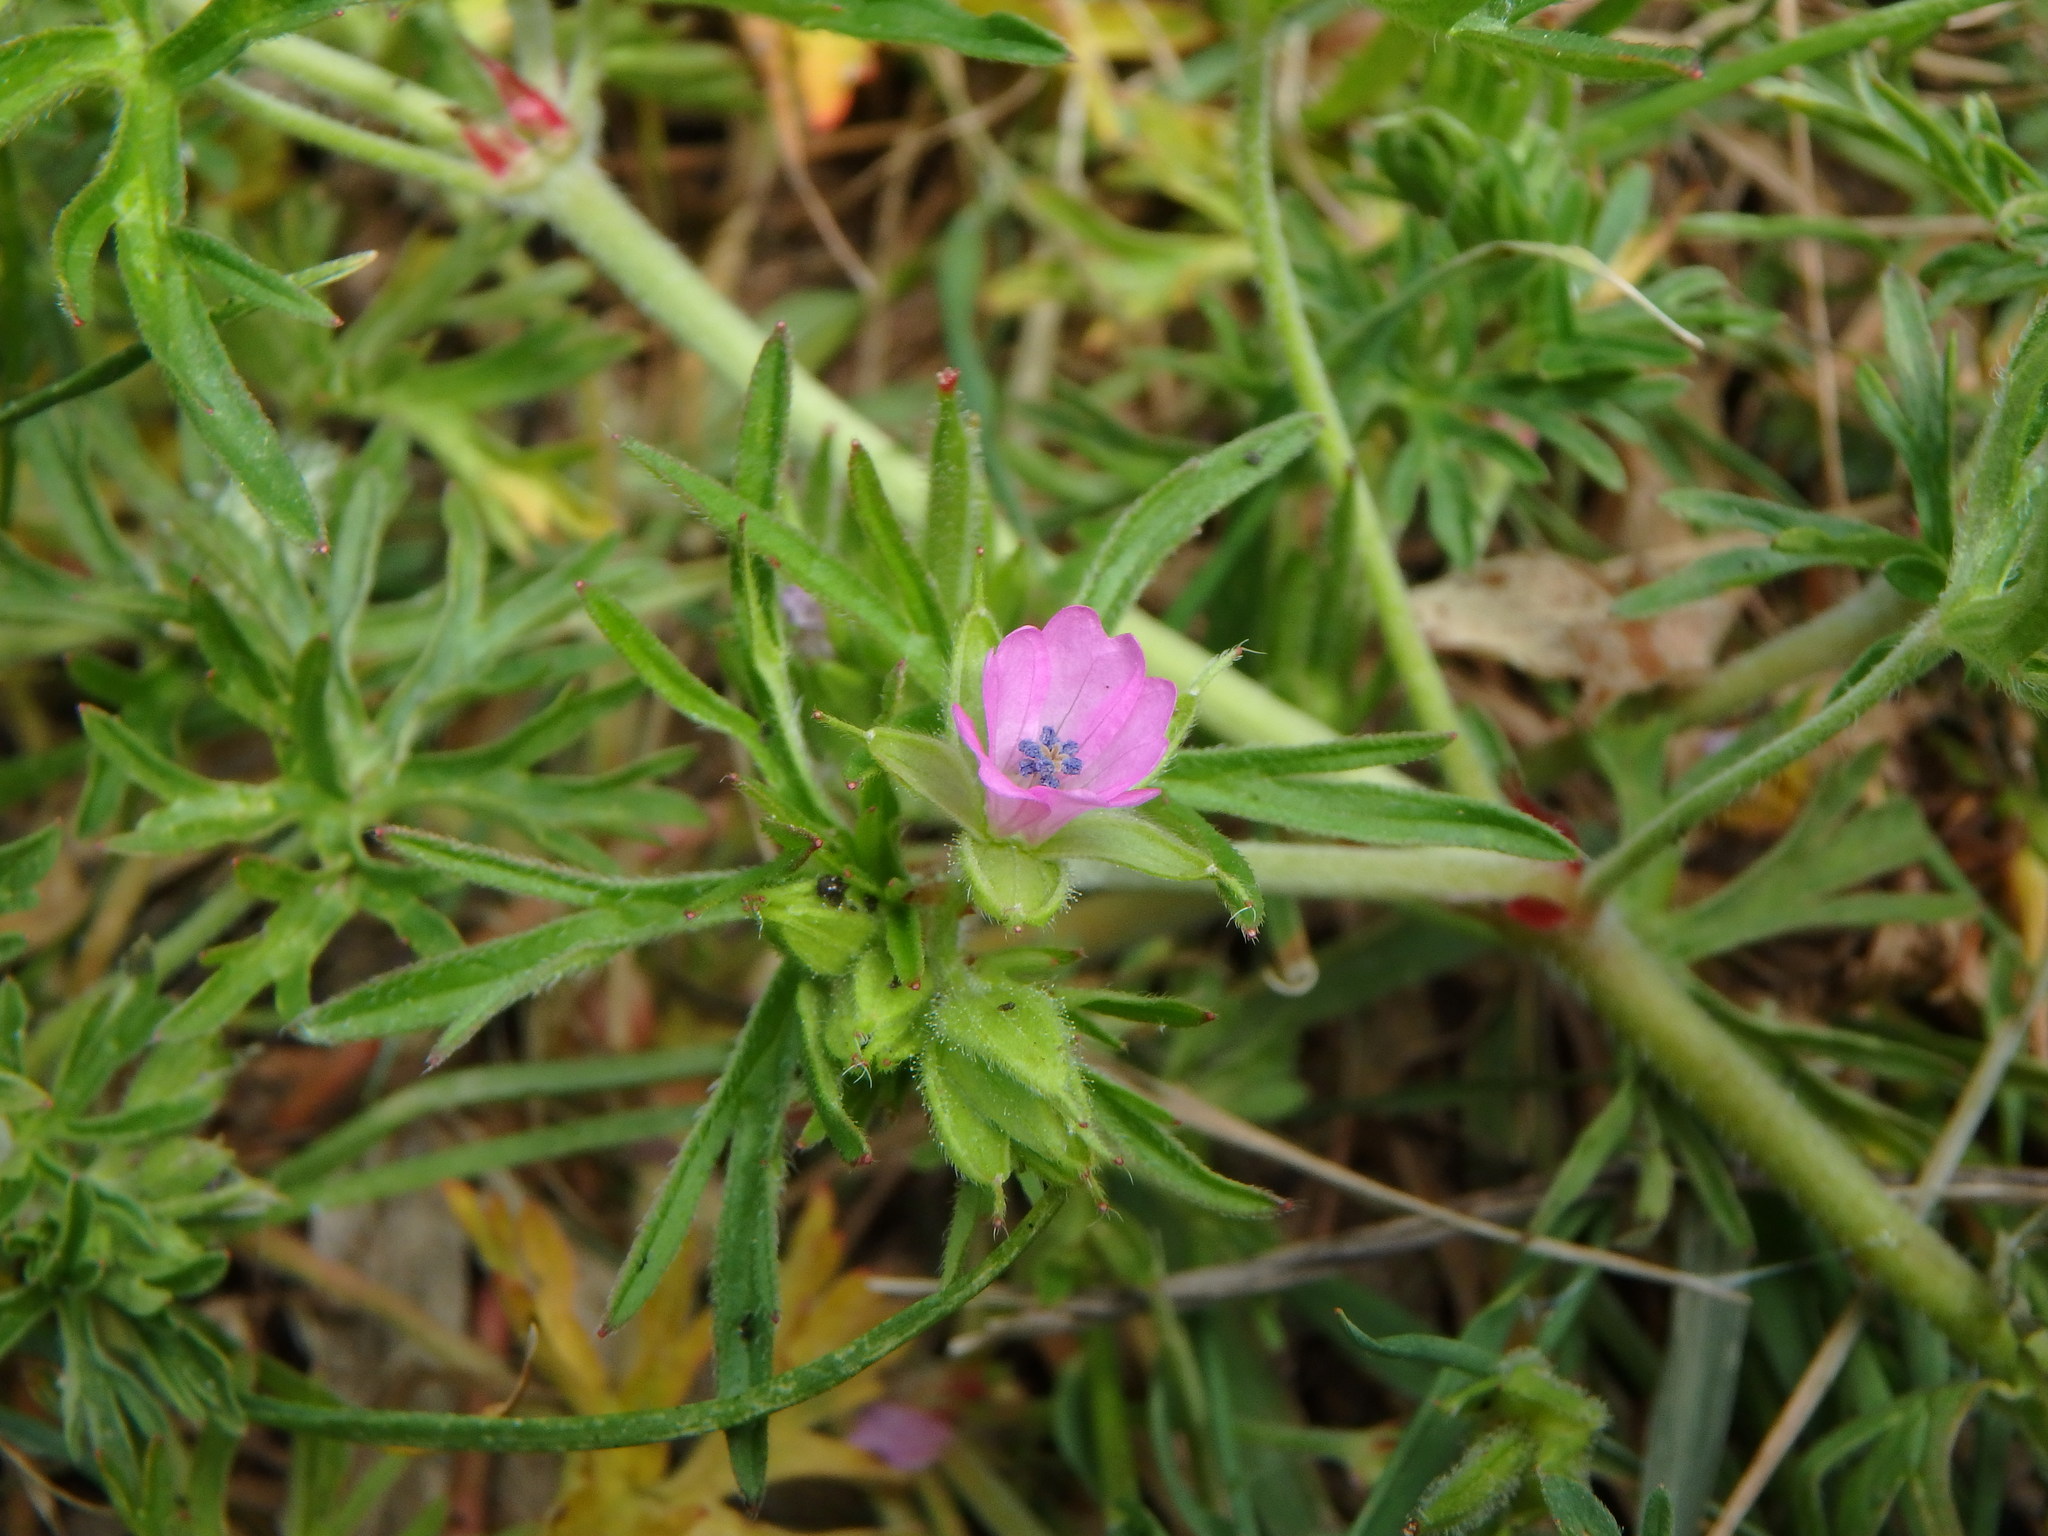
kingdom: Plantae
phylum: Tracheophyta
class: Magnoliopsida
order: Geraniales
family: Geraniaceae
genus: Geranium
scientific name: Geranium dissectum
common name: Cut-leaved crane's-bill
